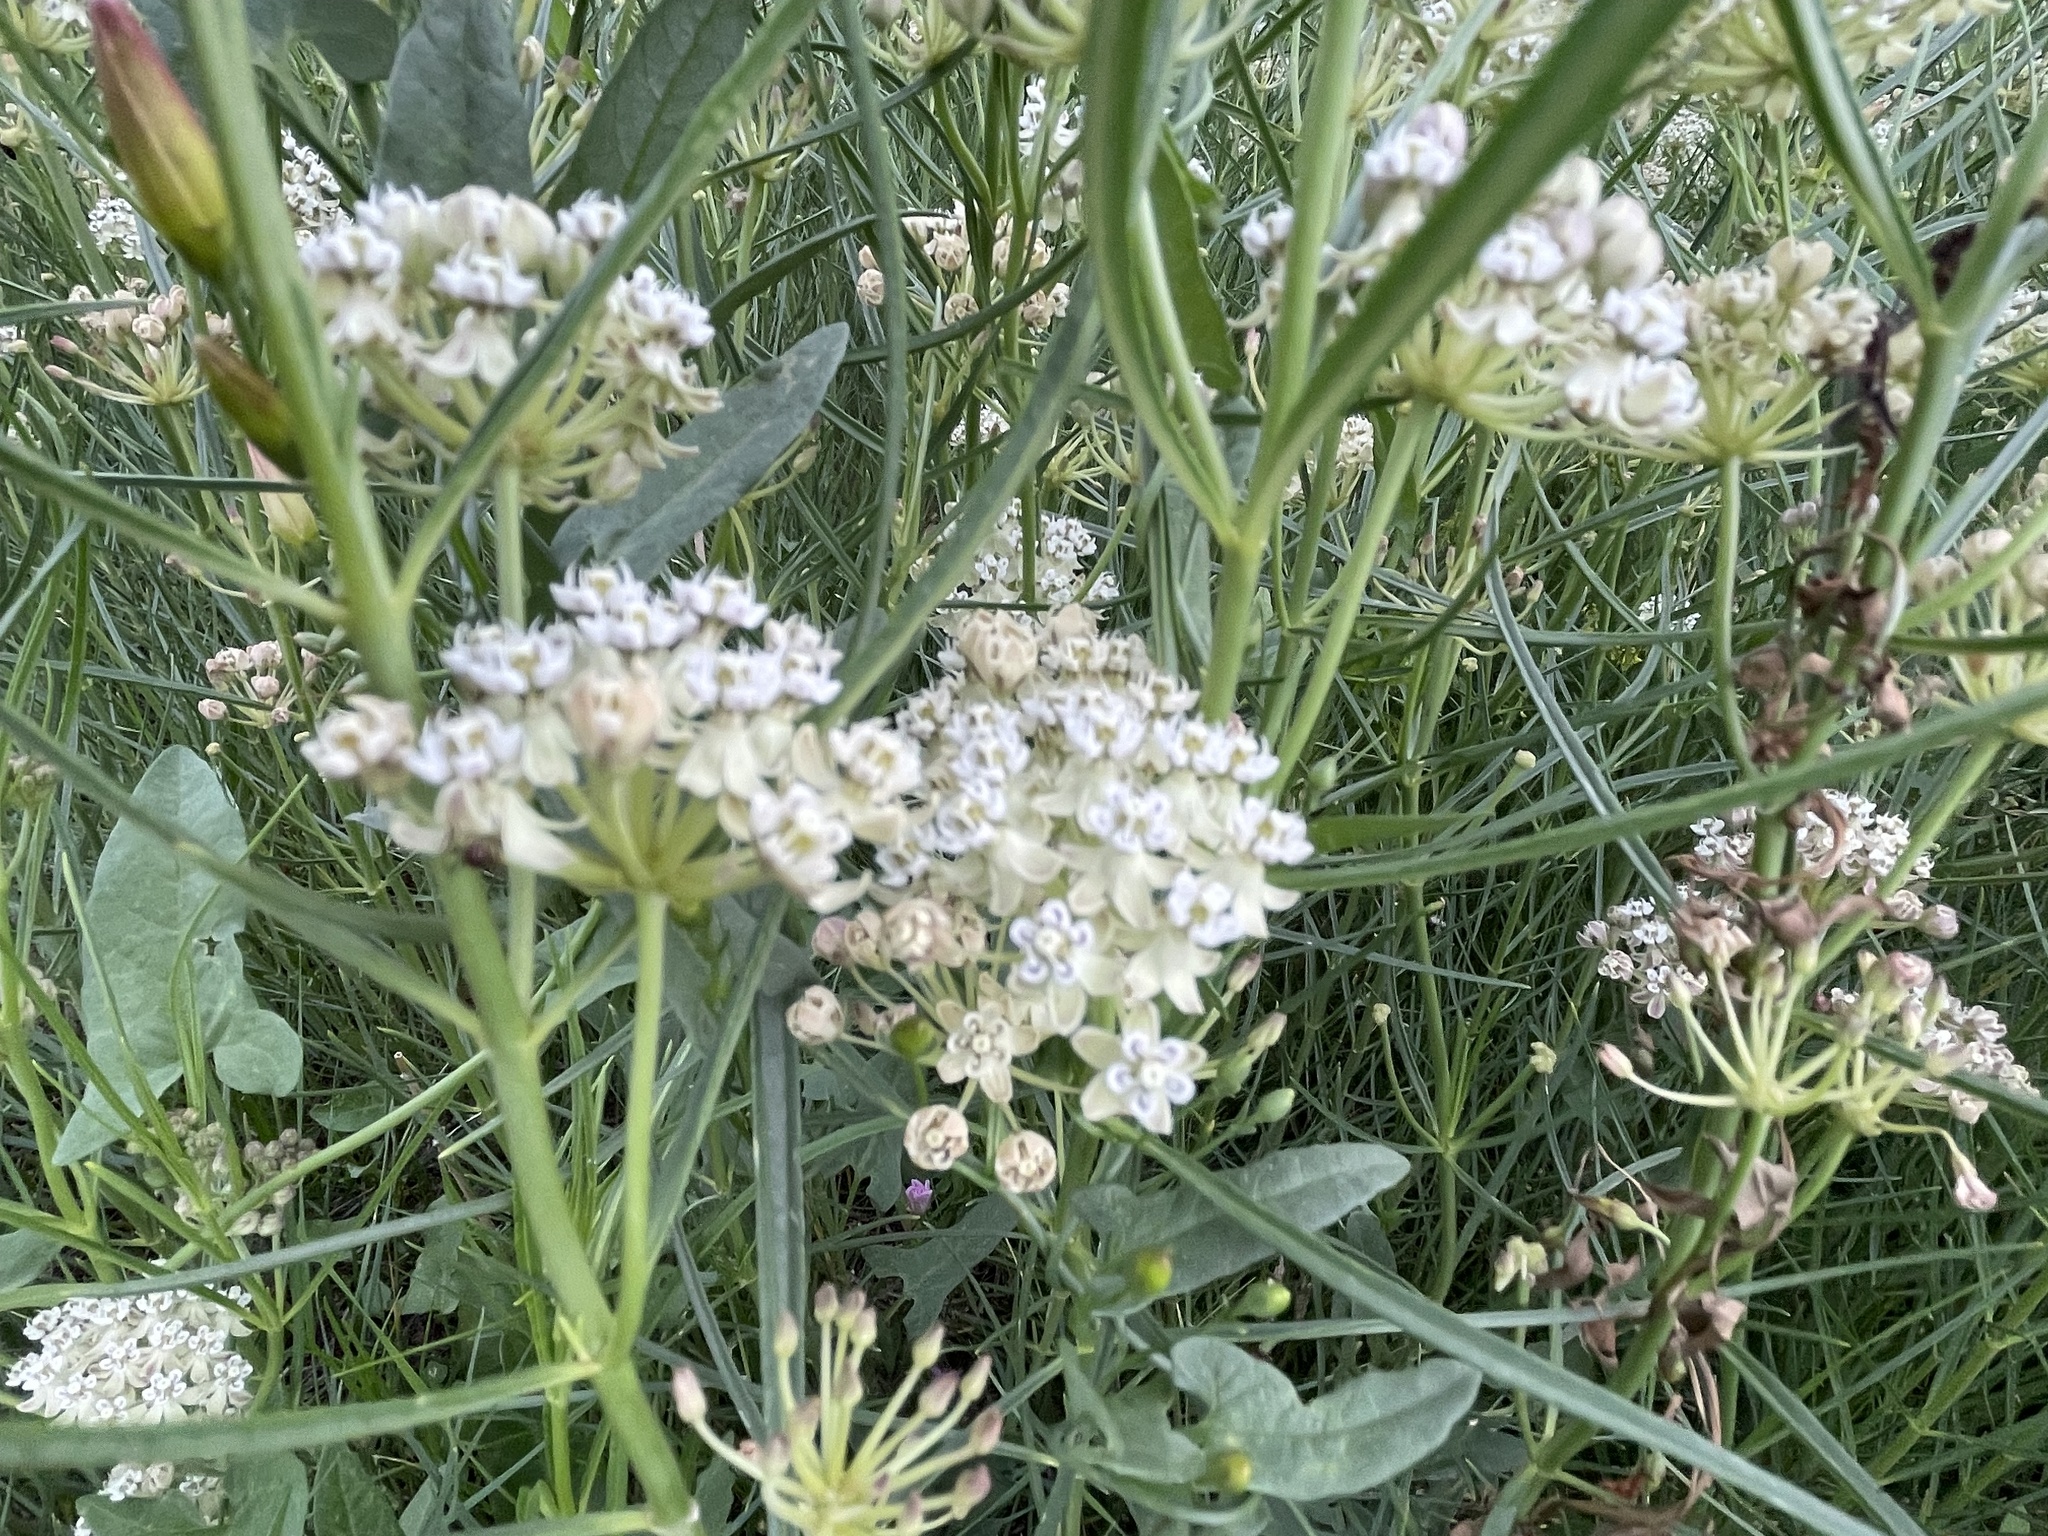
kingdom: Plantae
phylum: Tracheophyta
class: Magnoliopsida
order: Gentianales
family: Apocynaceae
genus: Asclepias
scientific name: Asclepias subverticillata
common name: Horsetail milkweed
